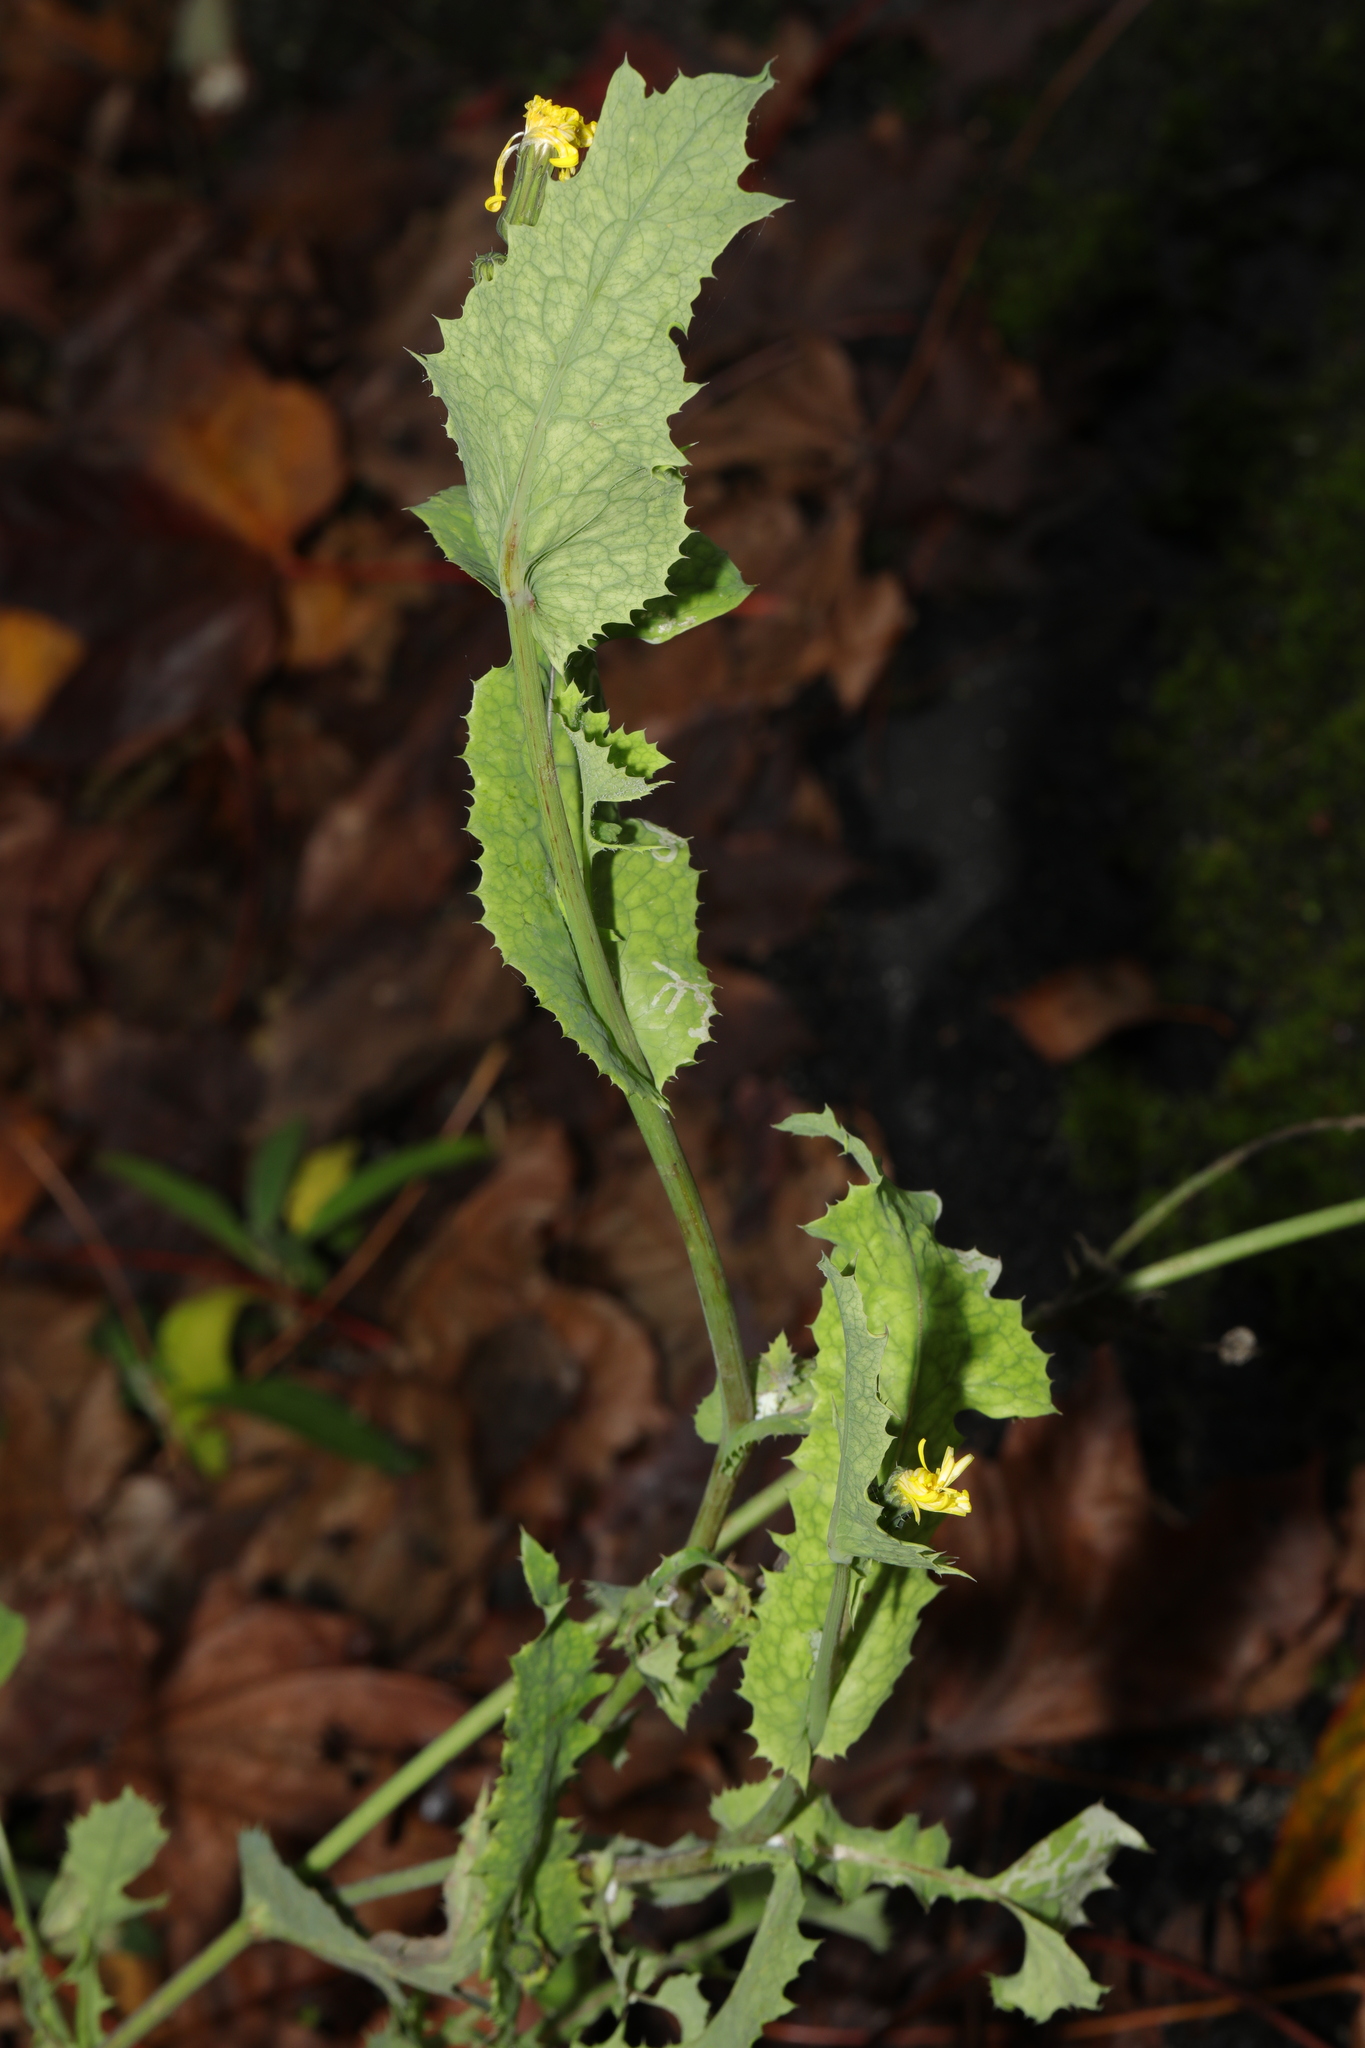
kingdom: Plantae
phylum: Tracheophyta
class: Magnoliopsida
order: Asterales
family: Asteraceae
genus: Sonchus
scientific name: Sonchus oleraceus
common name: Common sowthistle
